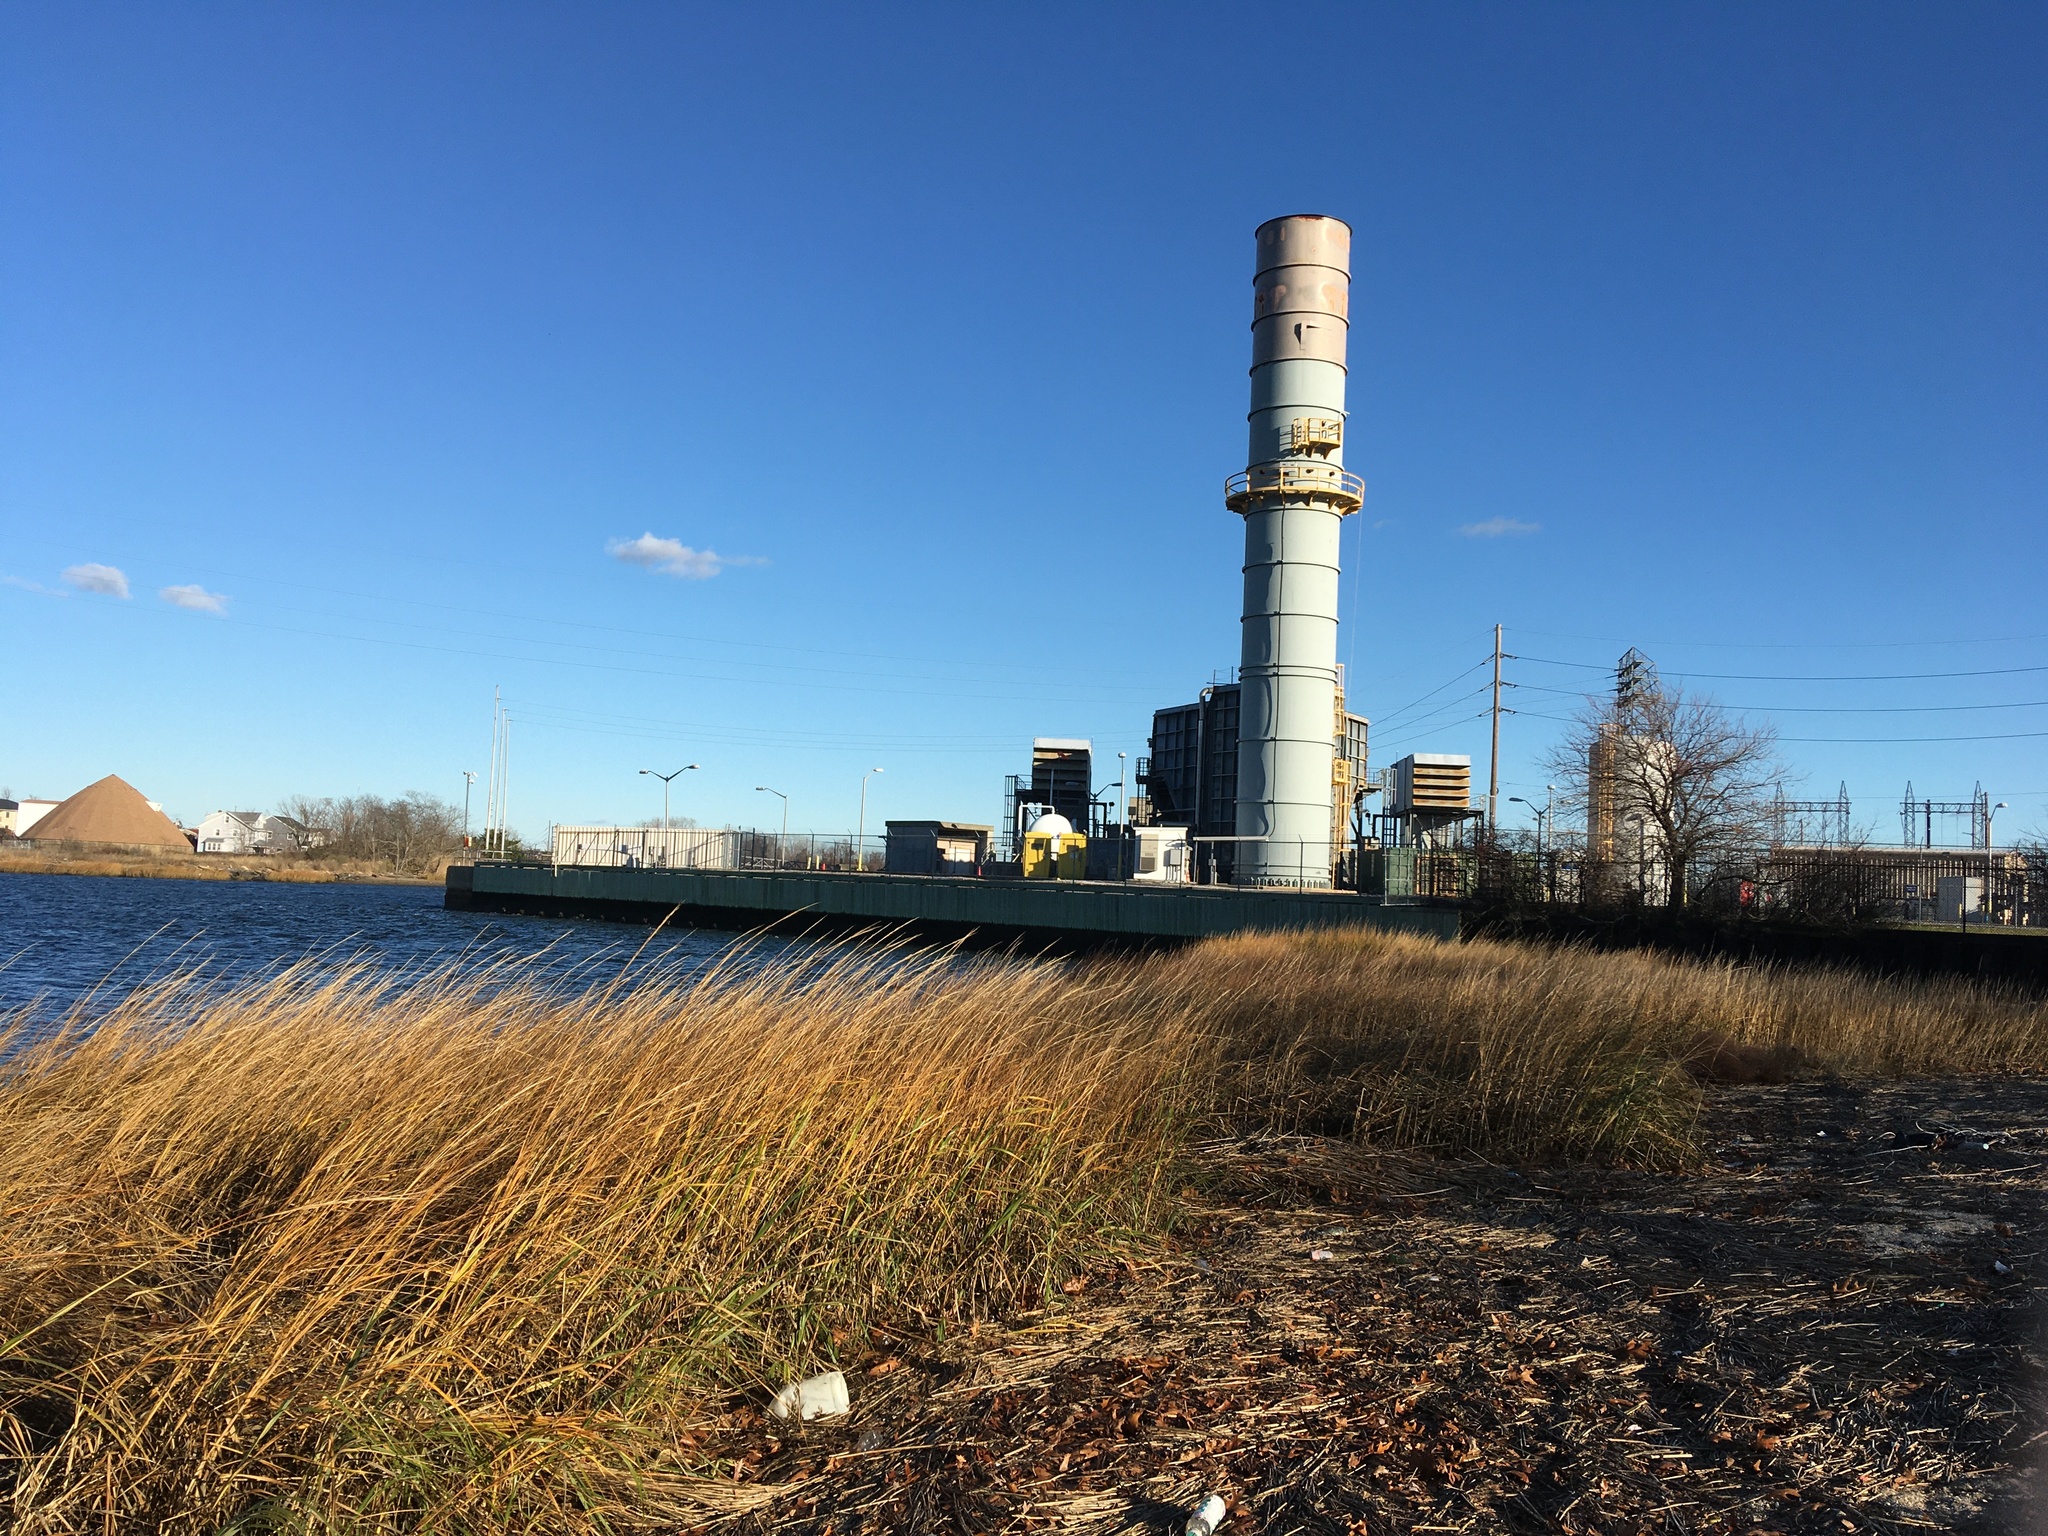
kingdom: Plantae
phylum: Tracheophyta
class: Liliopsida
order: Poales
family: Poaceae
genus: Sporobolus
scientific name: Sporobolus alterniflorus
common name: Atlantic cordgrass
